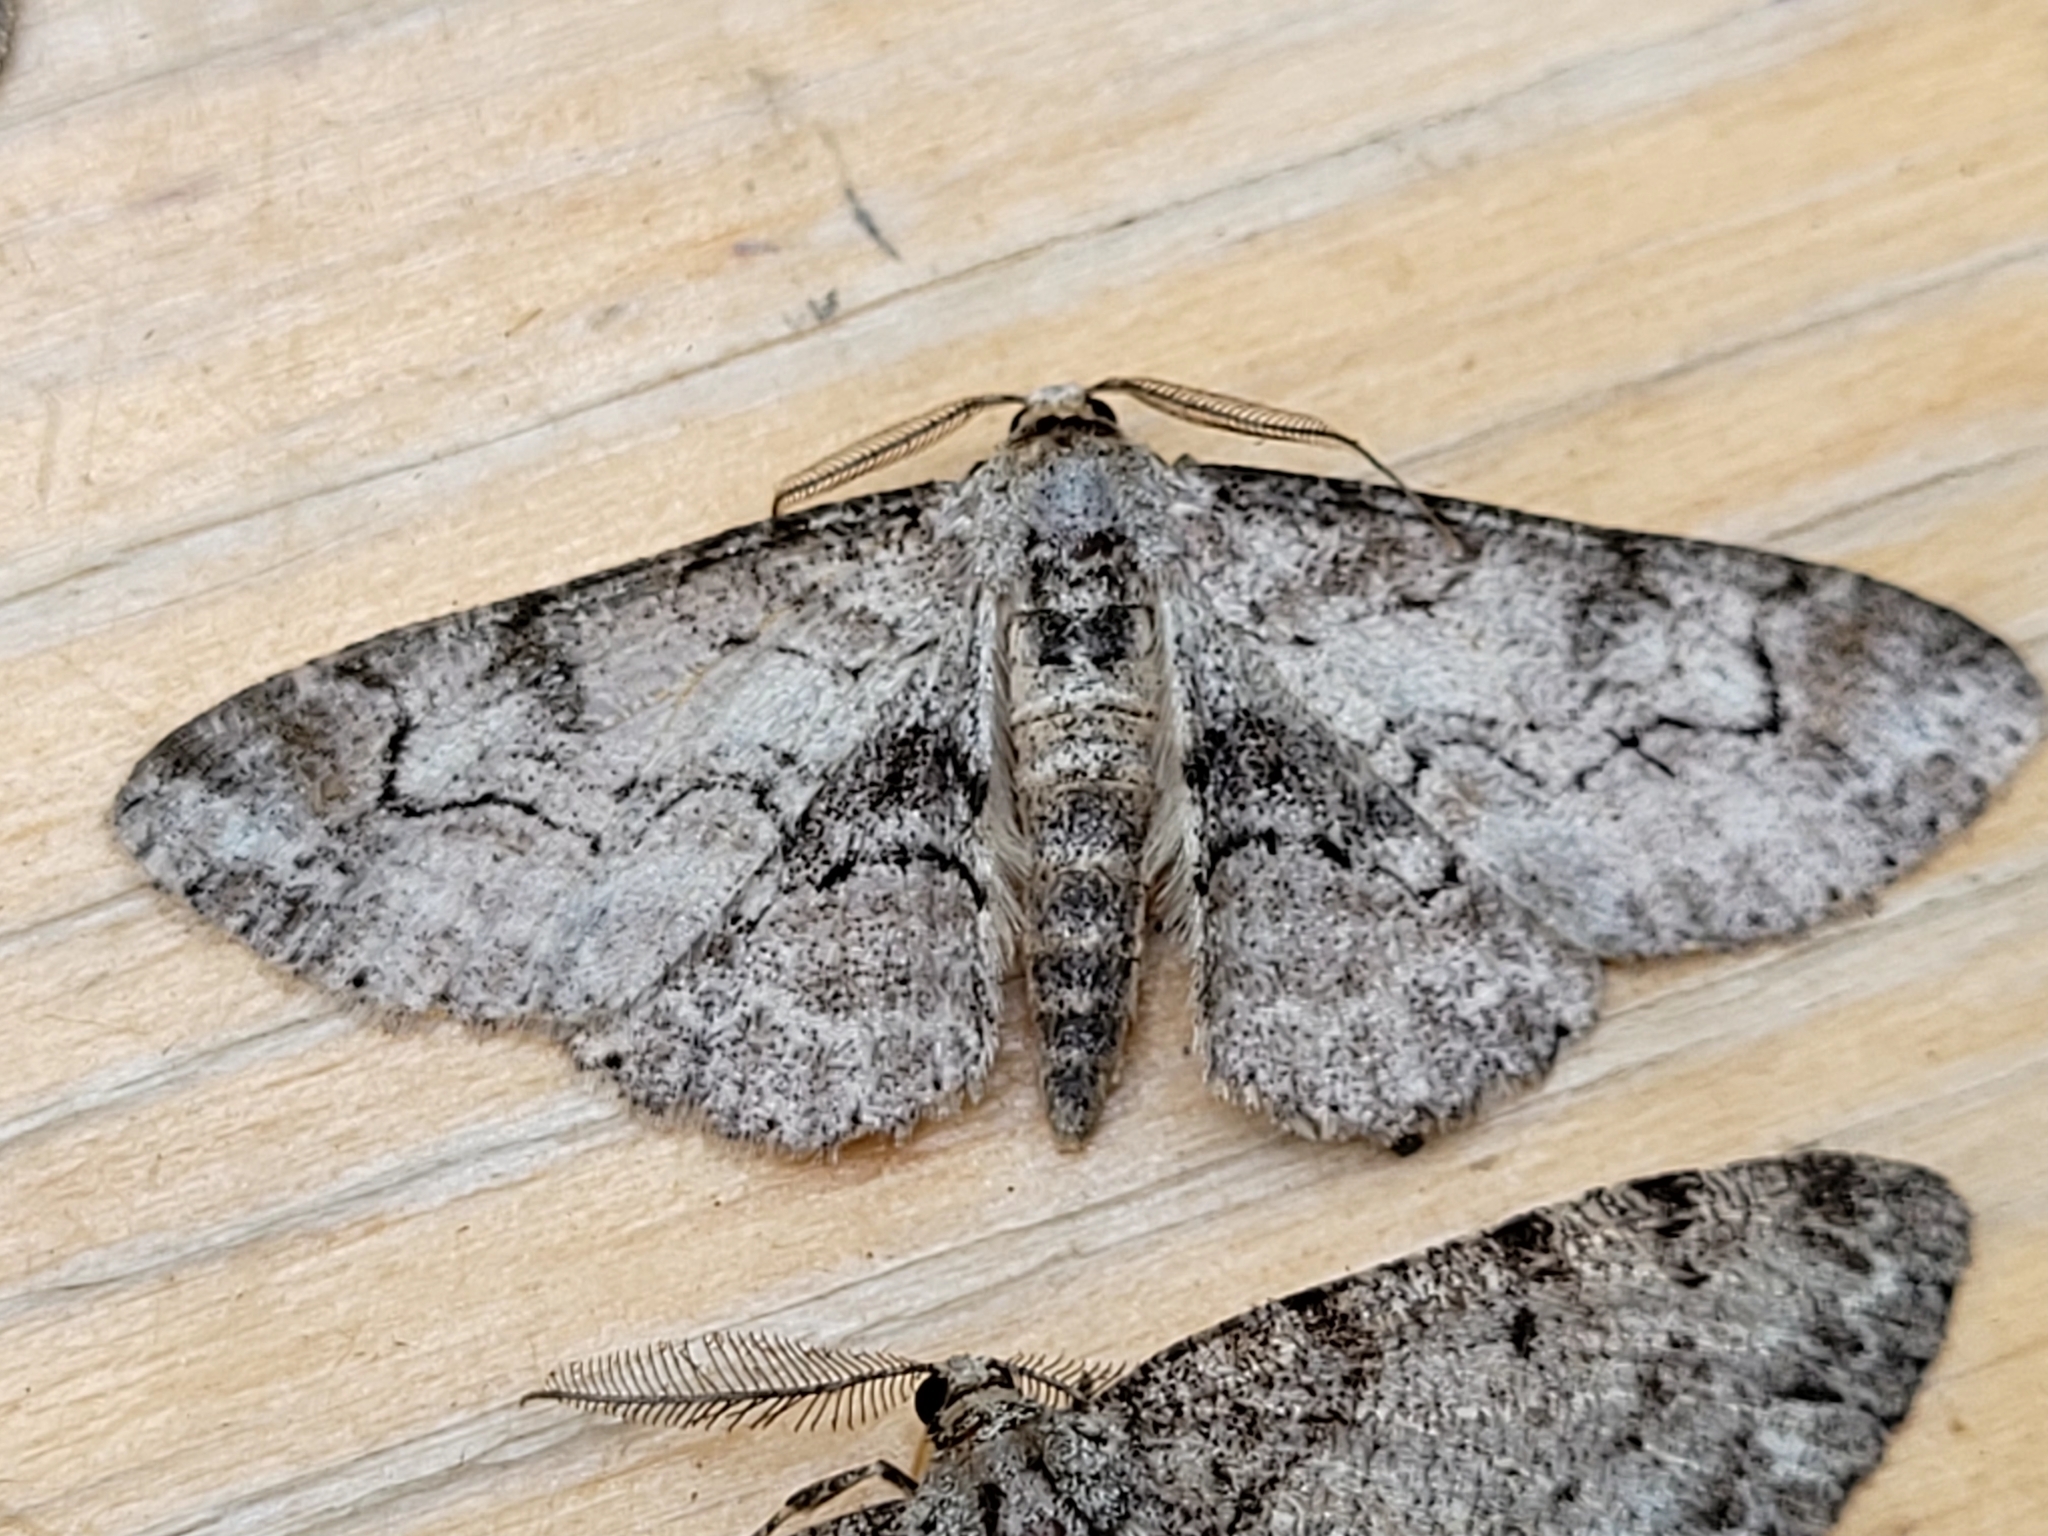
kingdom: Animalia
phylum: Arthropoda
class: Insecta
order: Lepidoptera
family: Geometridae
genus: Iridopsis
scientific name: Iridopsis larvaria
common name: Bent-line gray
